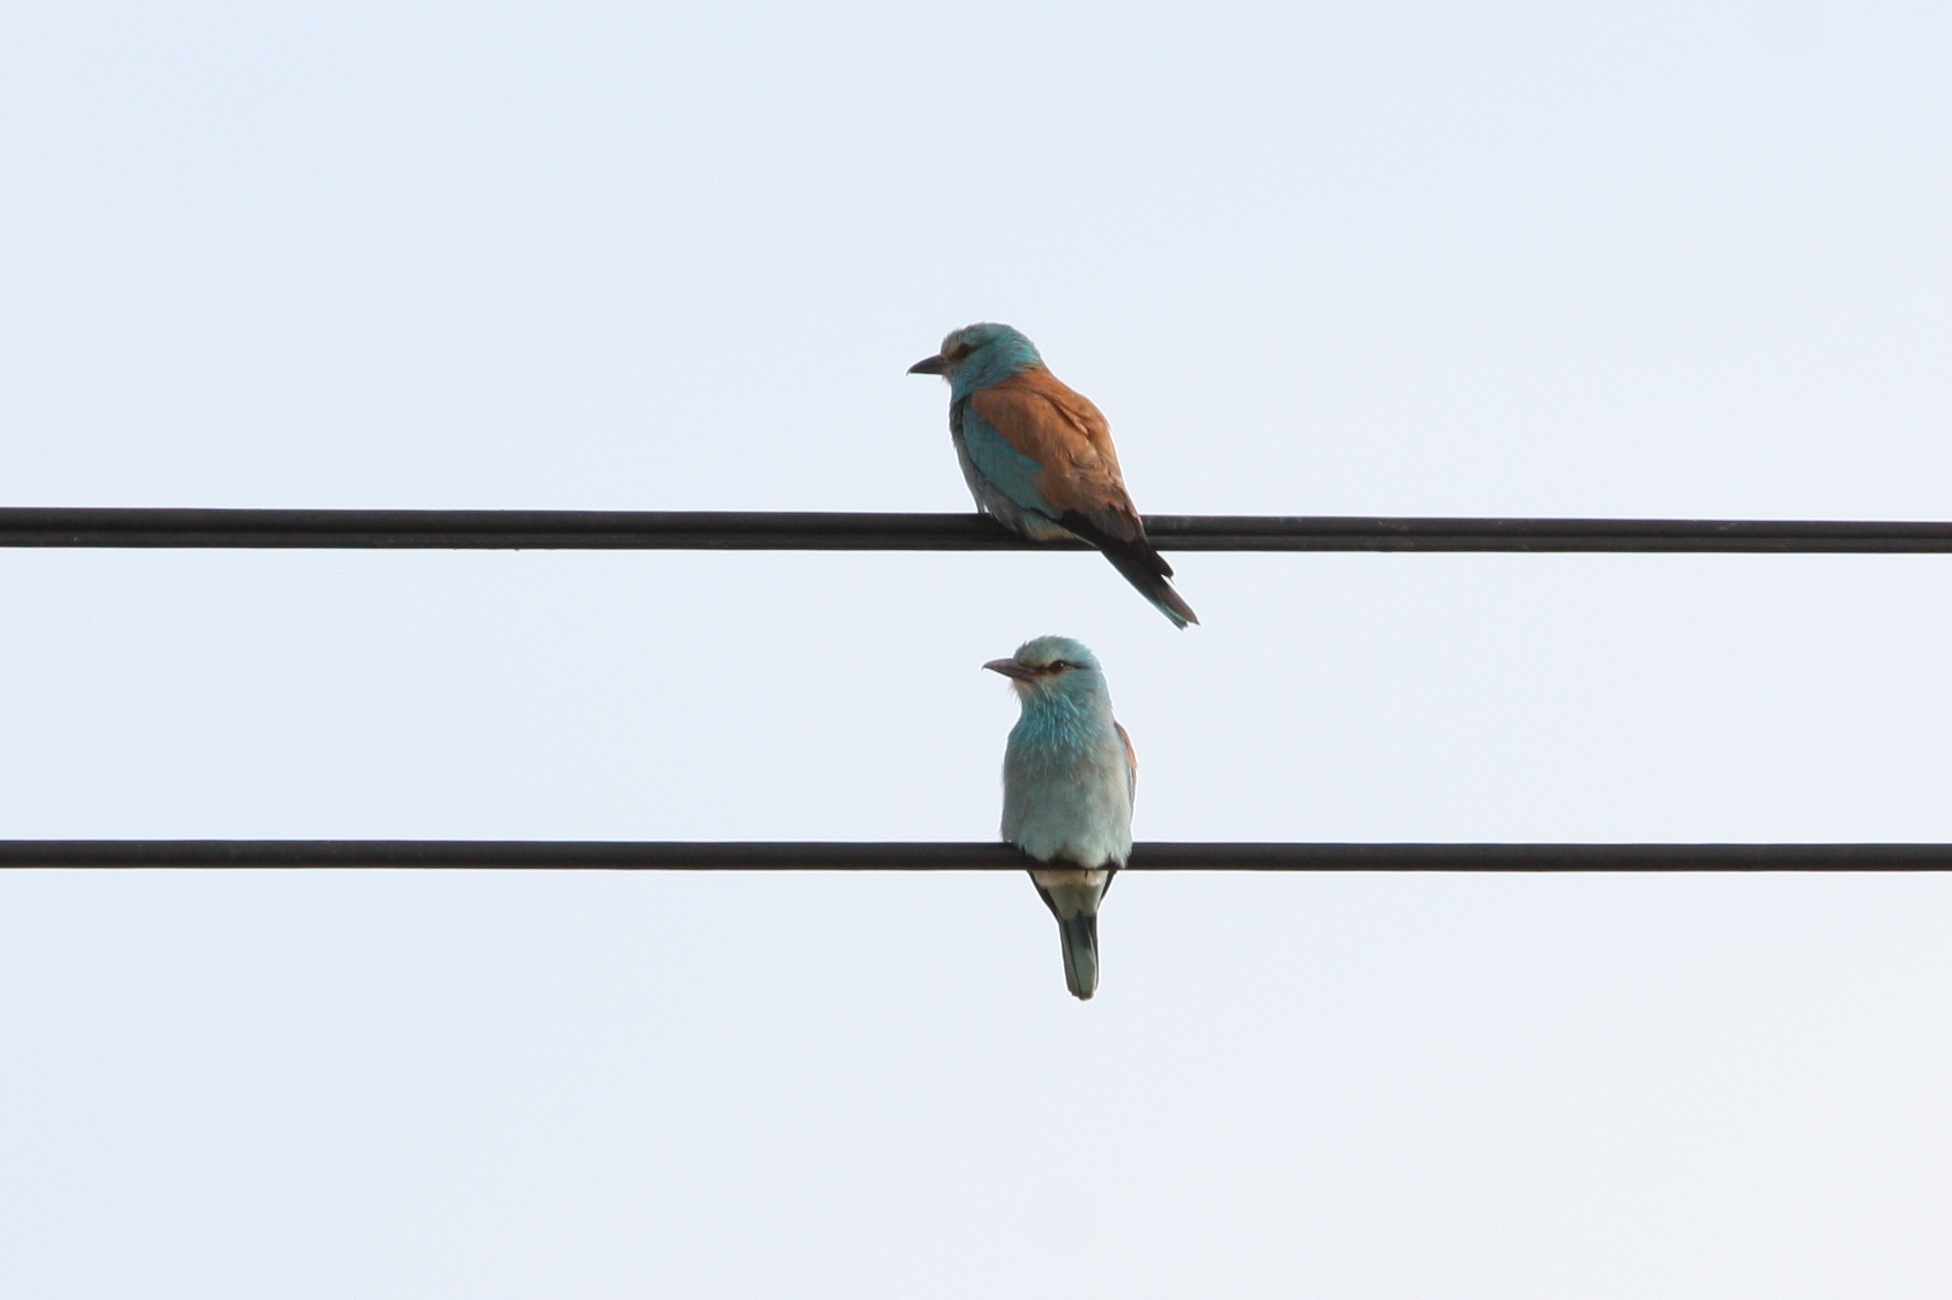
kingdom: Animalia
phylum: Chordata
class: Aves
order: Coraciiformes
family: Coraciidae
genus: Coracias
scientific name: Coracias garrulus
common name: European roller
